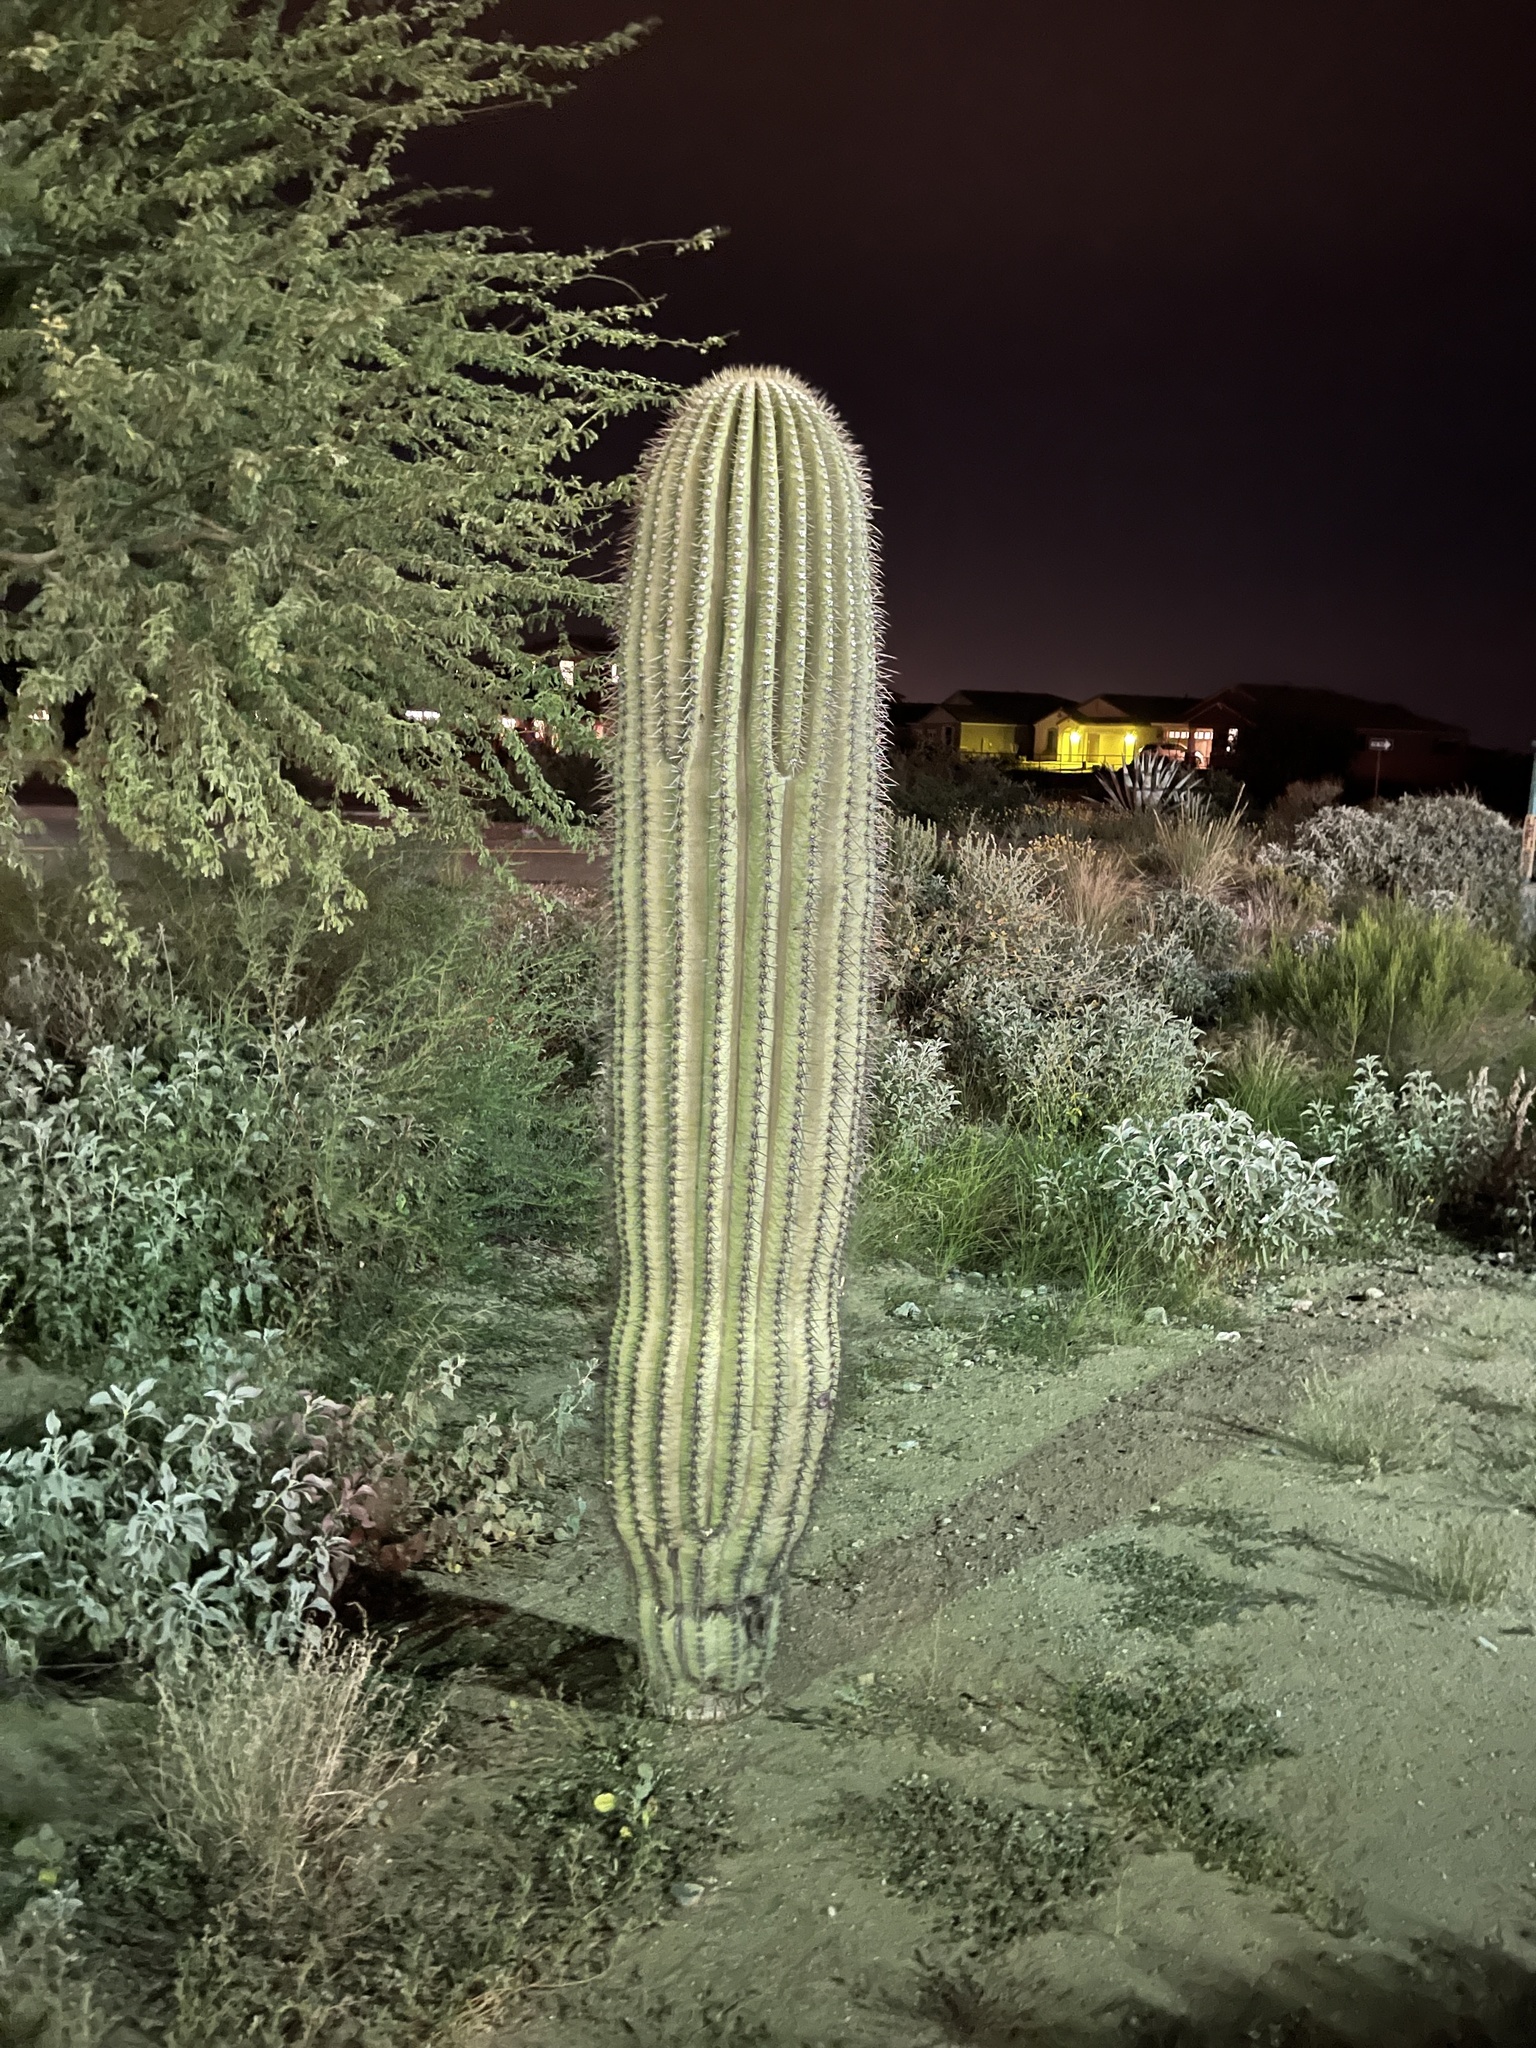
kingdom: Plantae
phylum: Tracheophyta
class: Magnoliopsida
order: Caryophyllales
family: Cactaceae
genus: Carnegiea
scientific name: Carnegiea gigantea
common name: Saguaro
